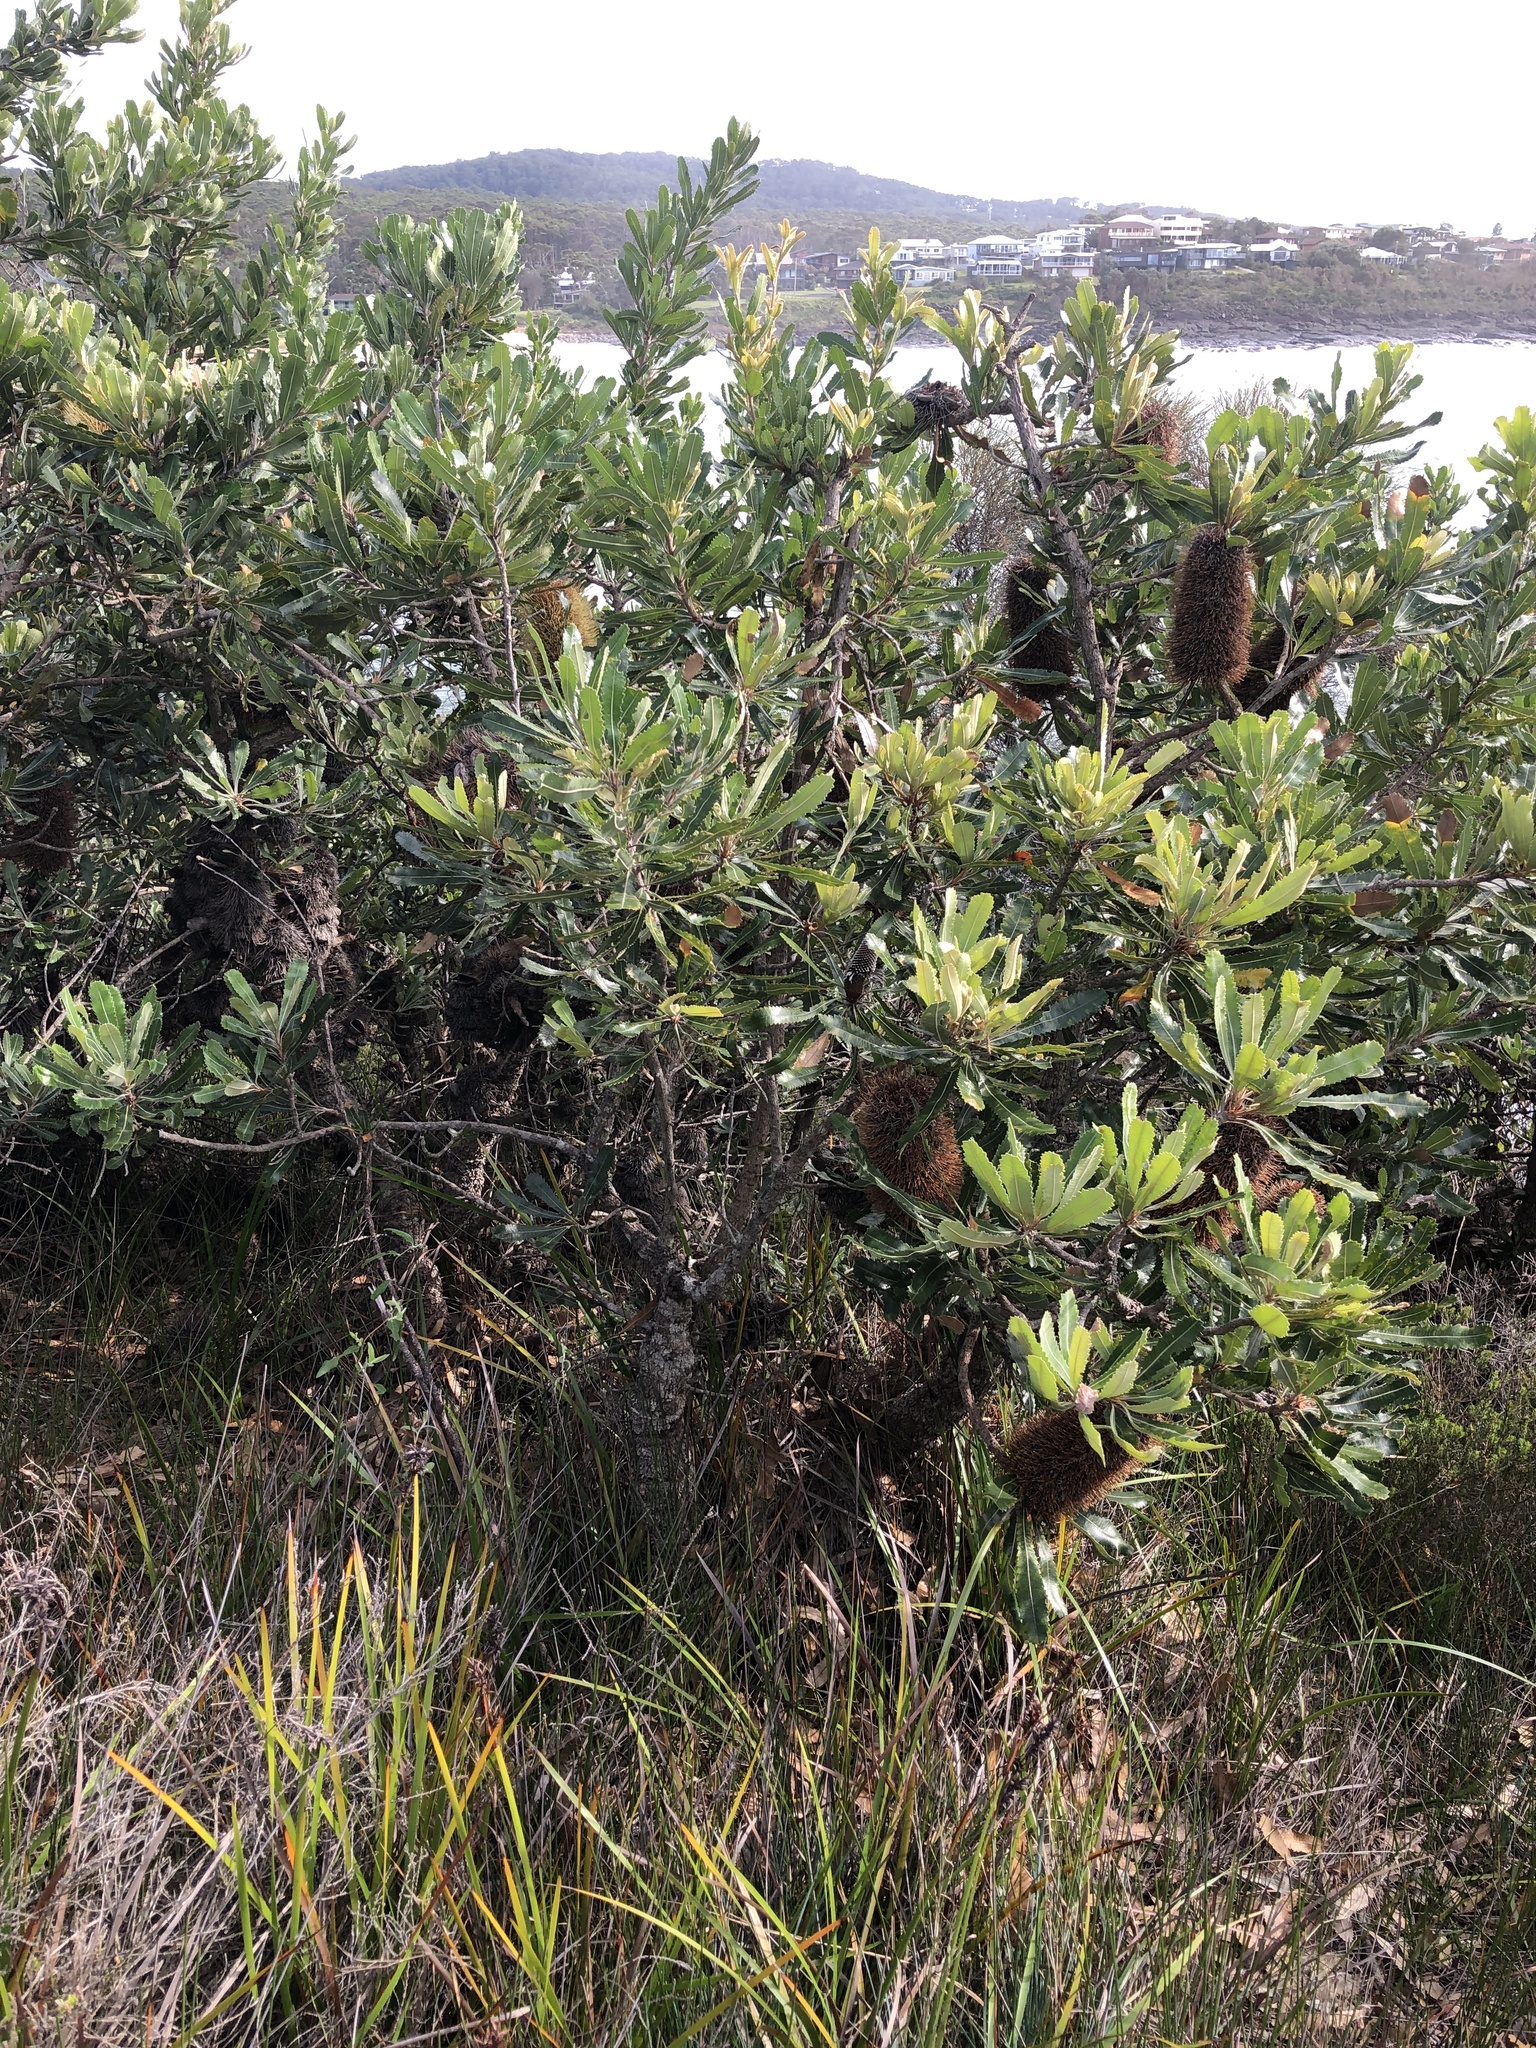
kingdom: Plantae
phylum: Tracheophyta
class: Magnoliopsida
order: Proteales
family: Proteaceae
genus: Banksia
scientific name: Banksia serrata
